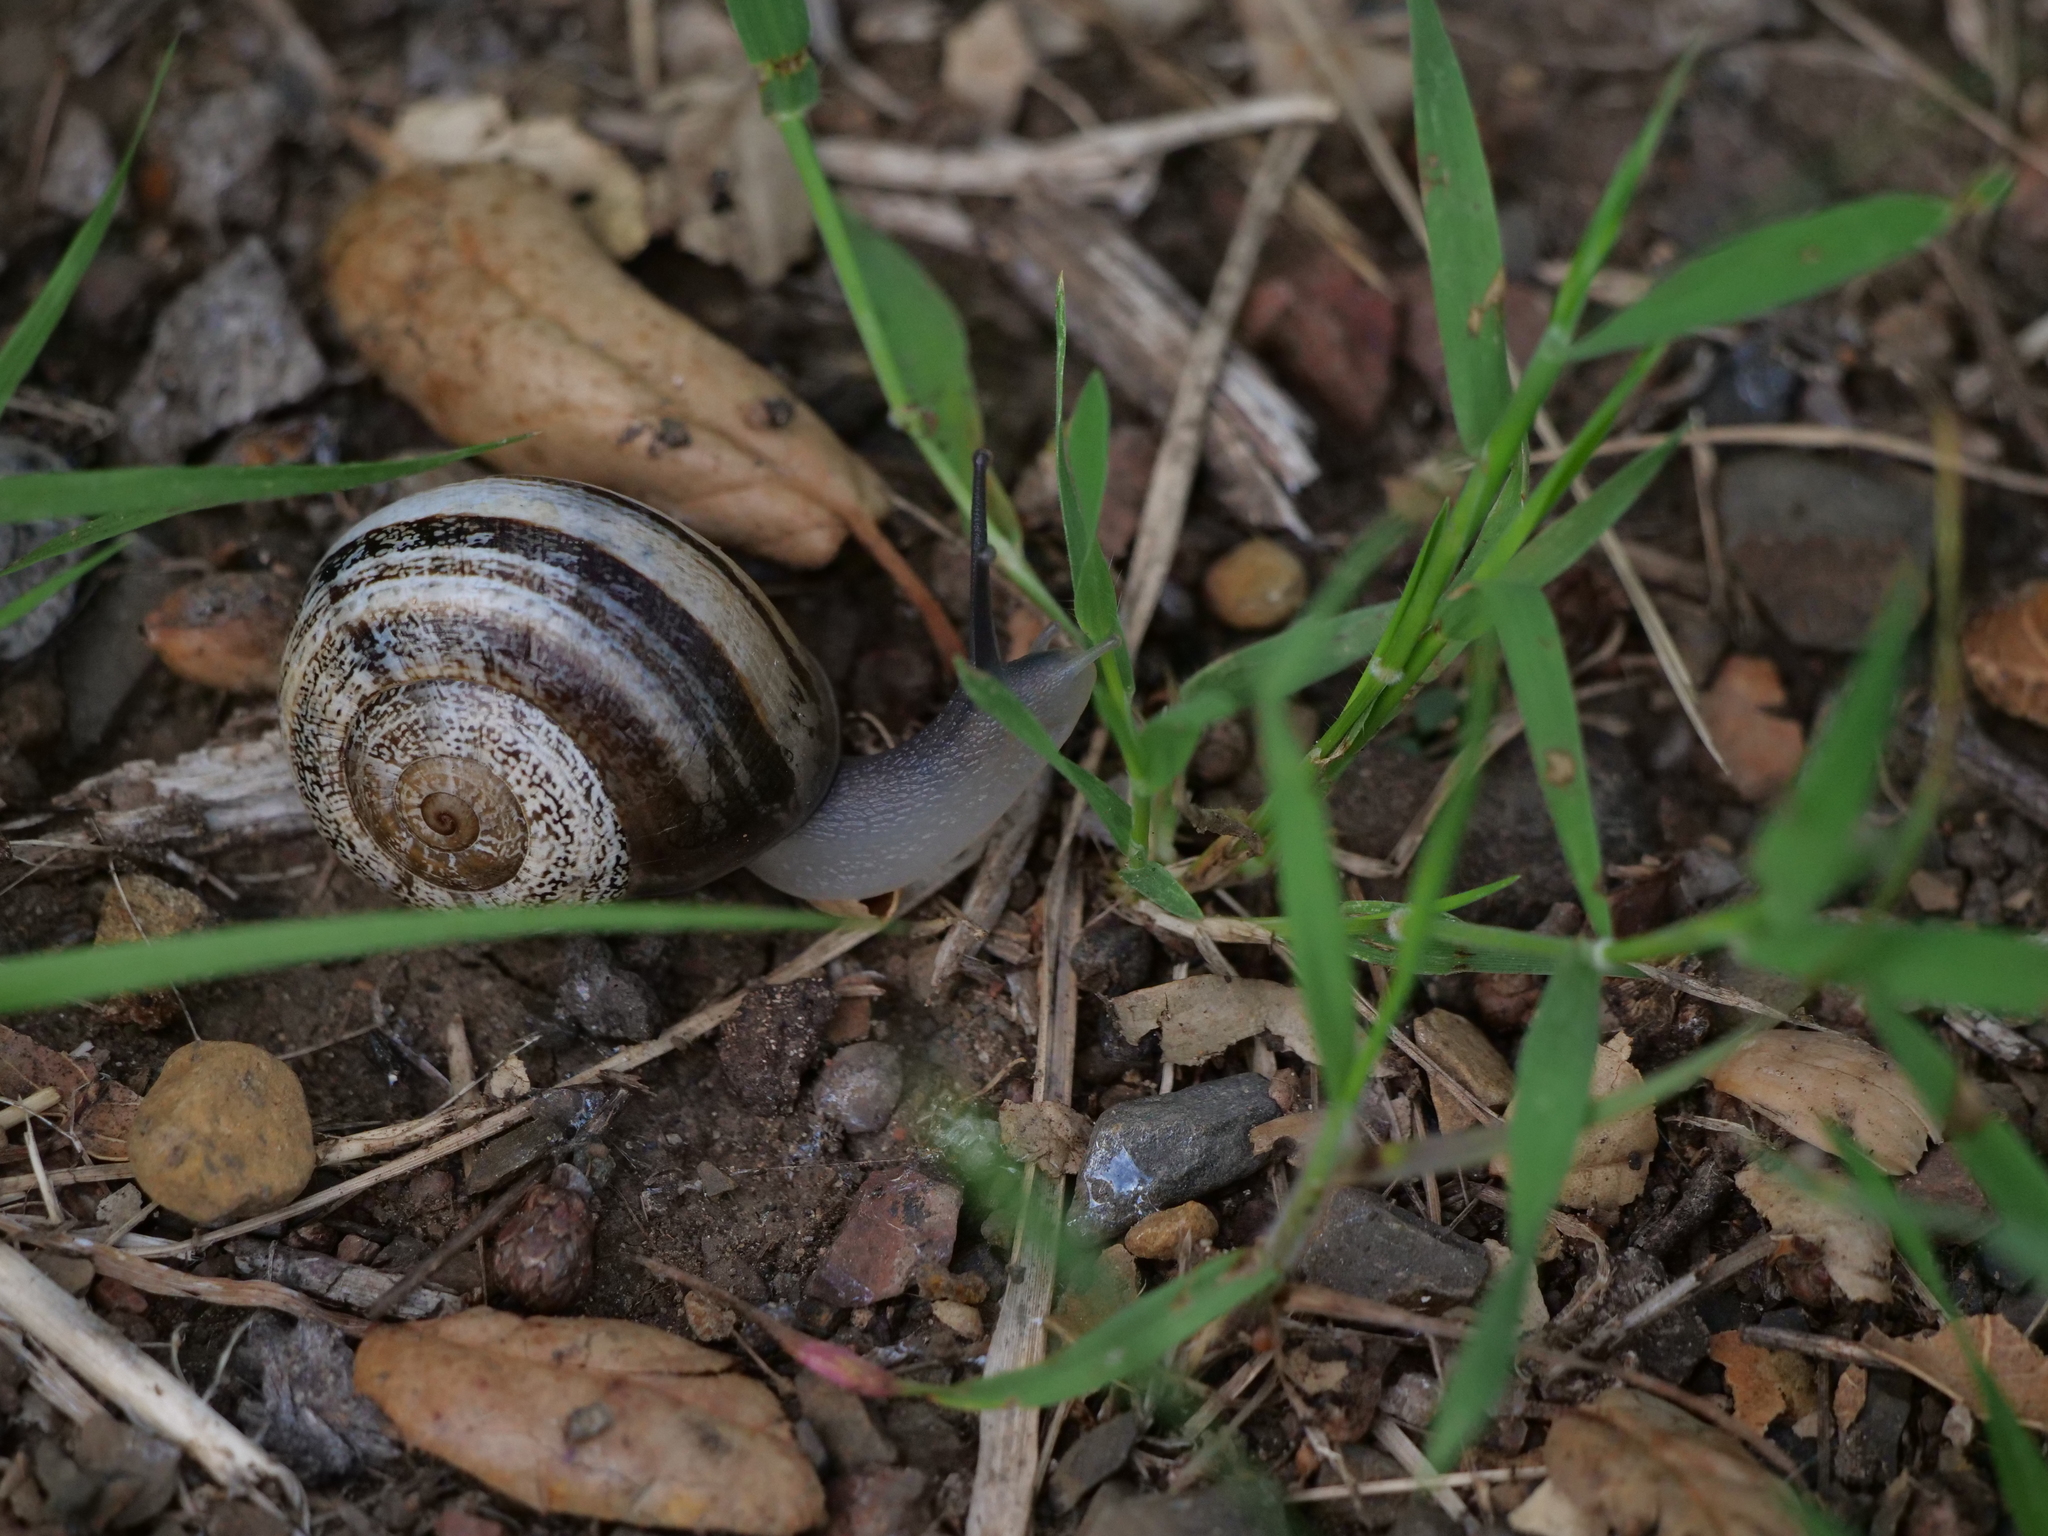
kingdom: Animalia
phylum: Mollusca
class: Gastropoda
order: Stylommatophora
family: Helicidae
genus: Otala
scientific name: Otala lactea
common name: Milk snail
